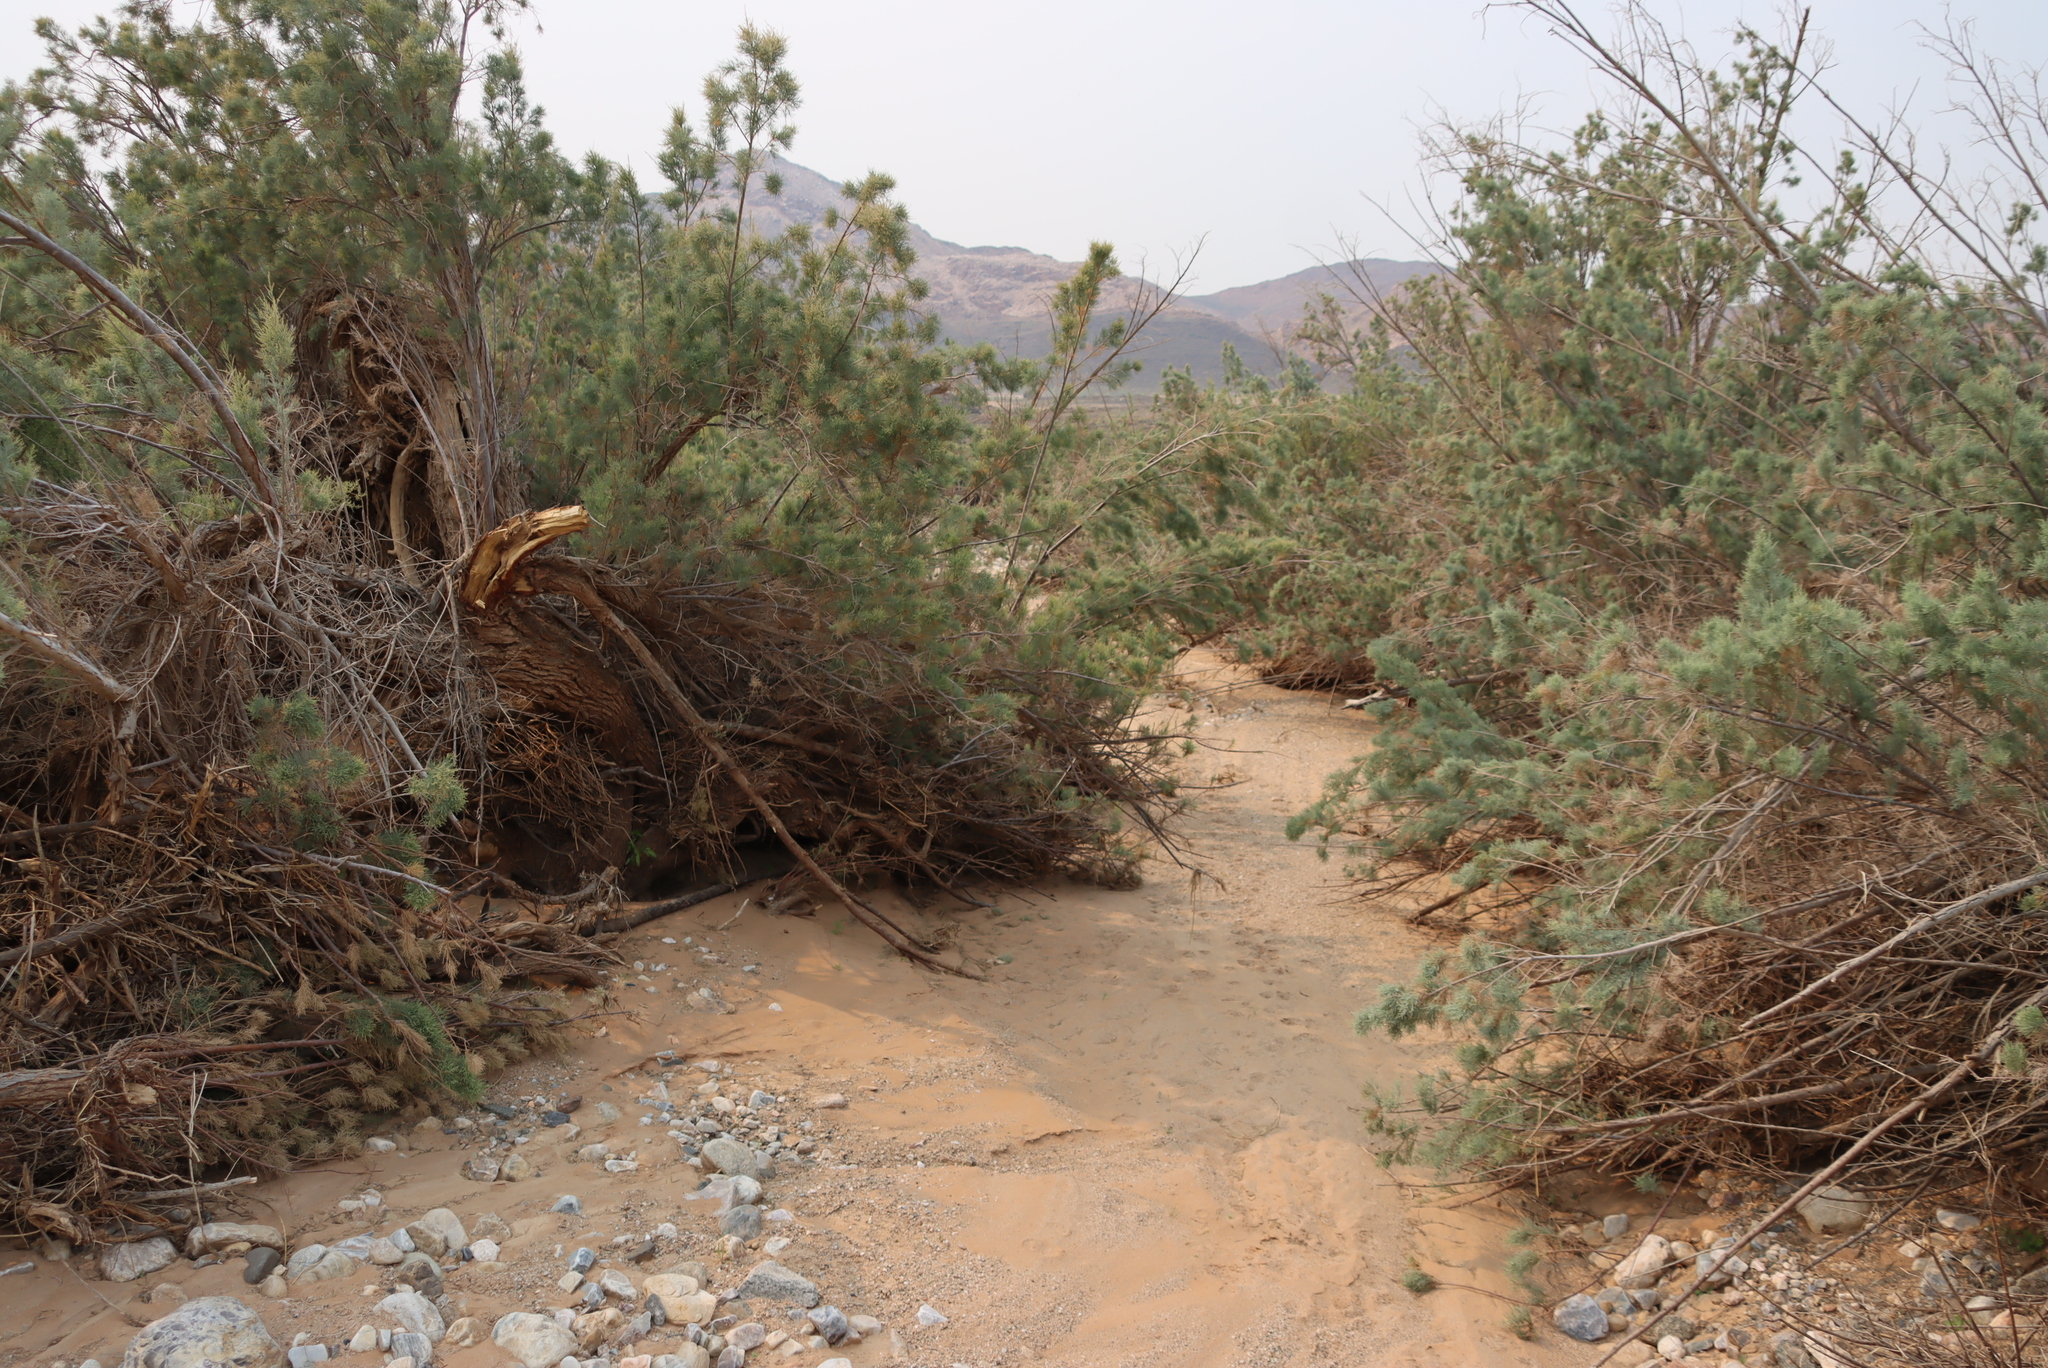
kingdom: Plantae
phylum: Tracheophyta
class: Magnoliopsida
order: Caryophyllales
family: Tamaricaceae
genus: Tamarix
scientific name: Tamarix usneoides
